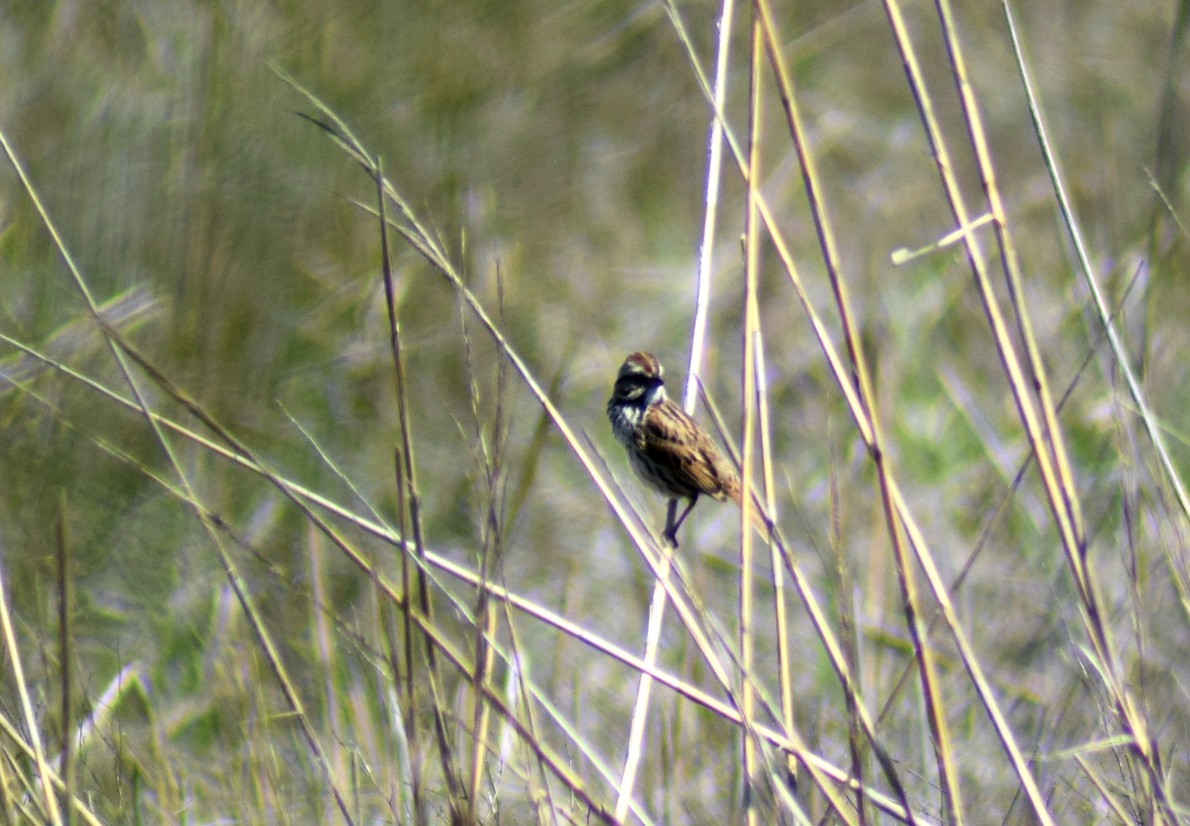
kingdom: Animalia
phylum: Chordata
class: Aves
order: Passeriformes
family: Passerellidae
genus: Melospiza
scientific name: Melospiza georgiana
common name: Swamp sparrow
